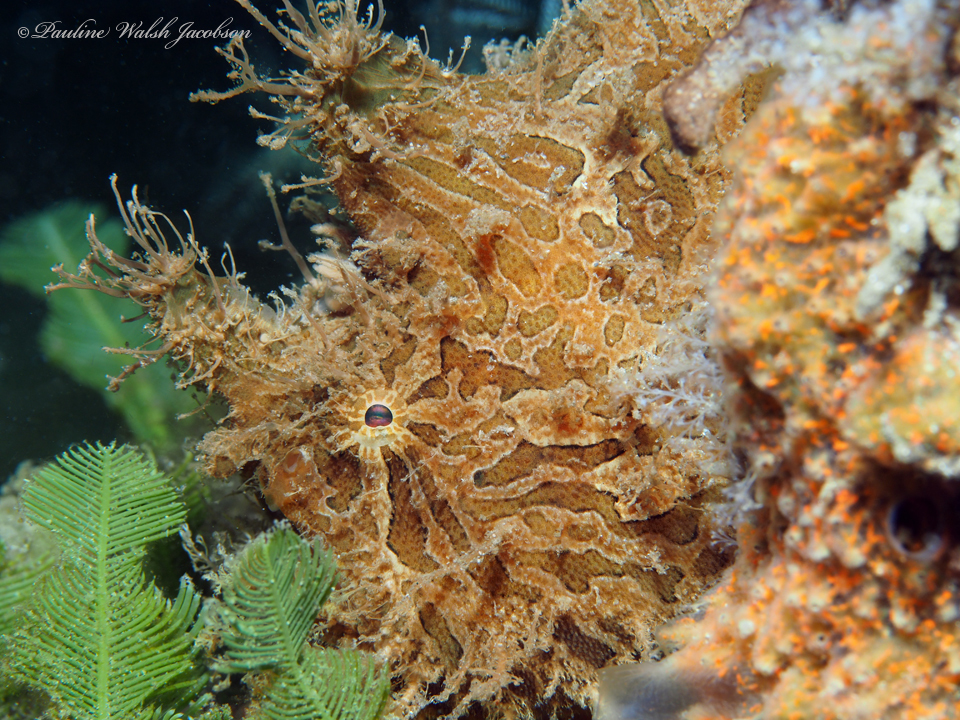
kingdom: Animalia
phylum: Chordata
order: Lophiiformes
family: Antennariidae
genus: Antennarius
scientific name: Antennarius striatus
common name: Striated frogfish
